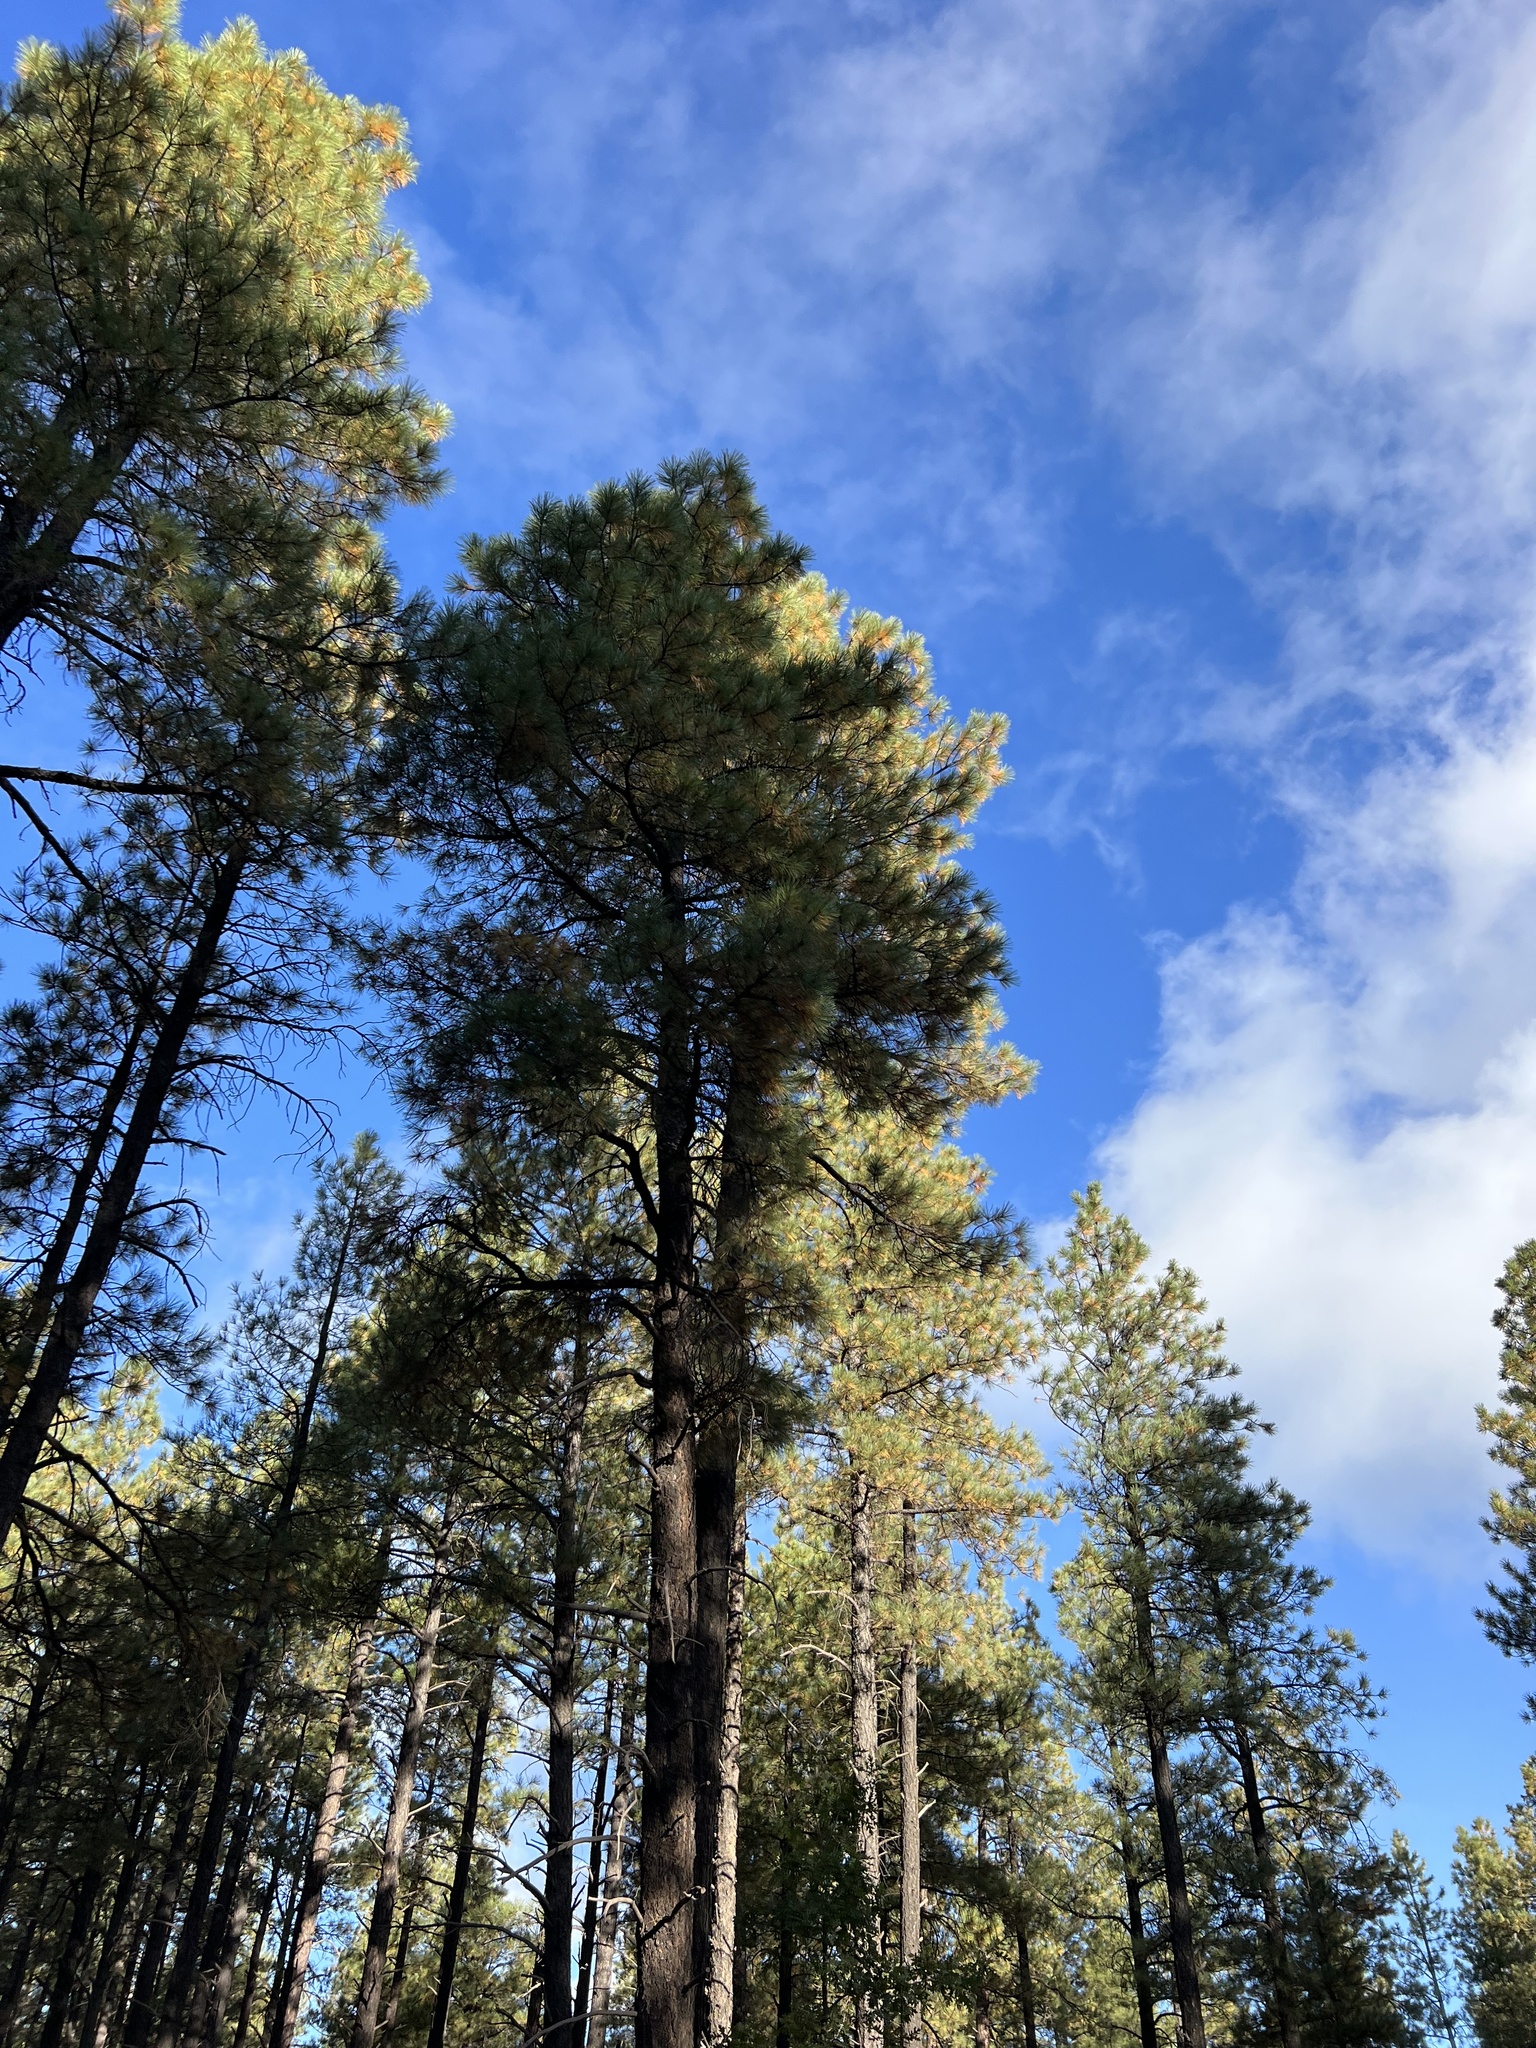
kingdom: Plantae
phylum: Tracheophyta
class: Pinopsida
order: Pinales
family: Pinaceae
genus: Pinus
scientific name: Pinus ponderosa
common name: Western yellow-pine
